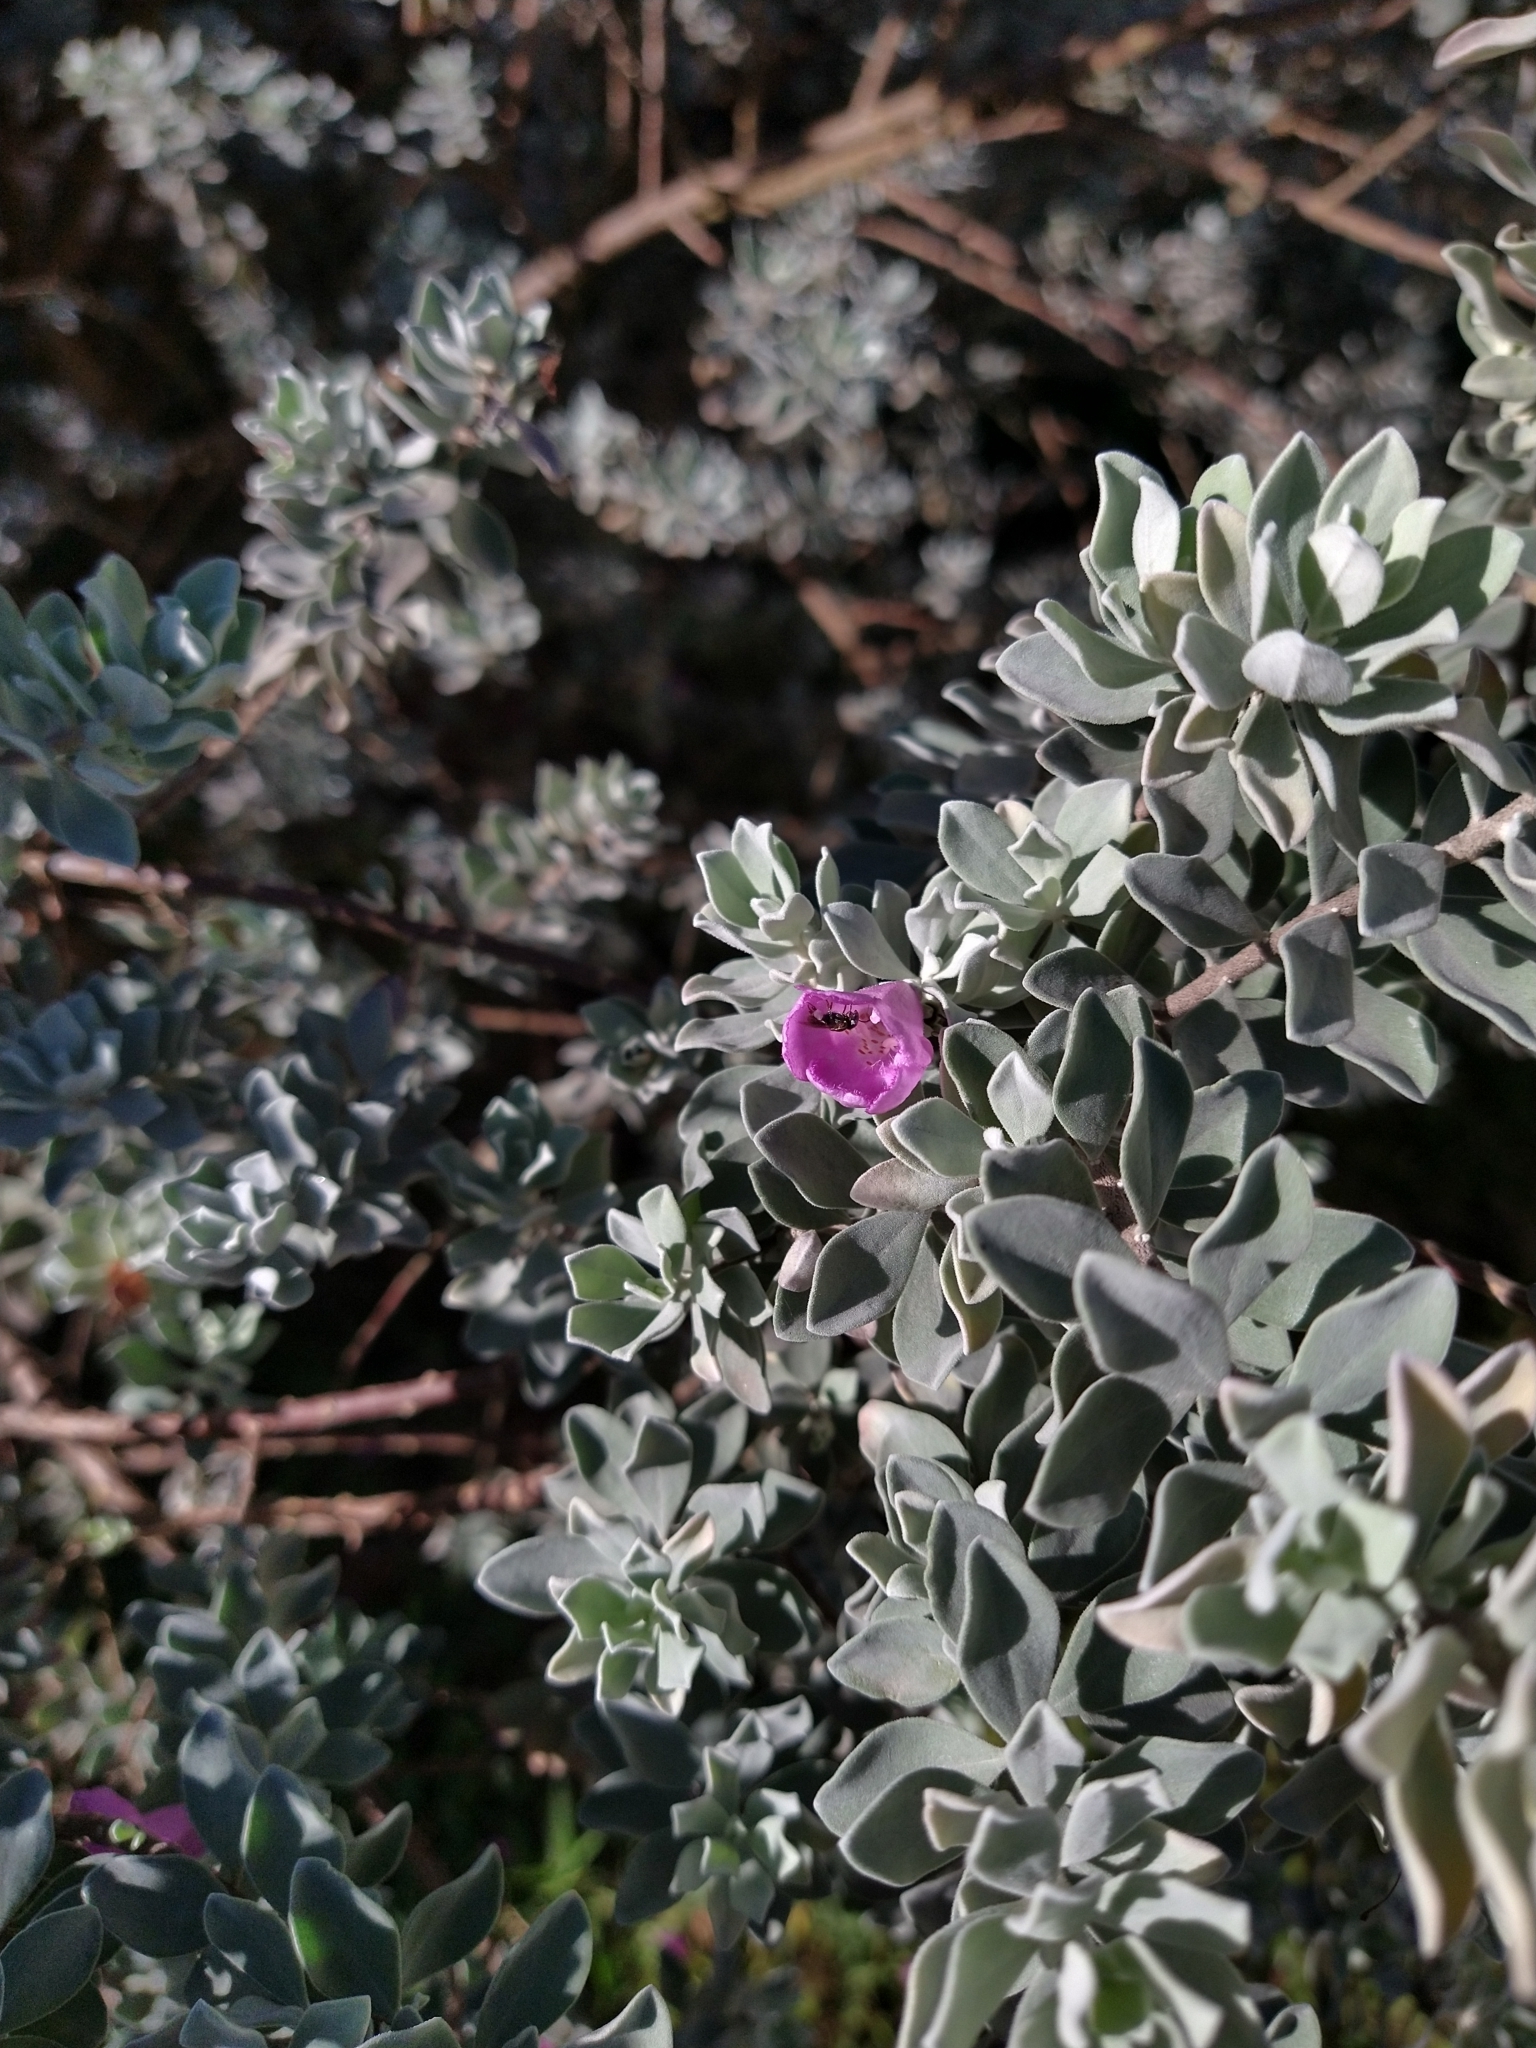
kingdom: Animalia
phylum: Arthropoda
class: Insecta
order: Hymenoptera
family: Apidae
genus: Paratrigona
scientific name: Paratrigona lineata
